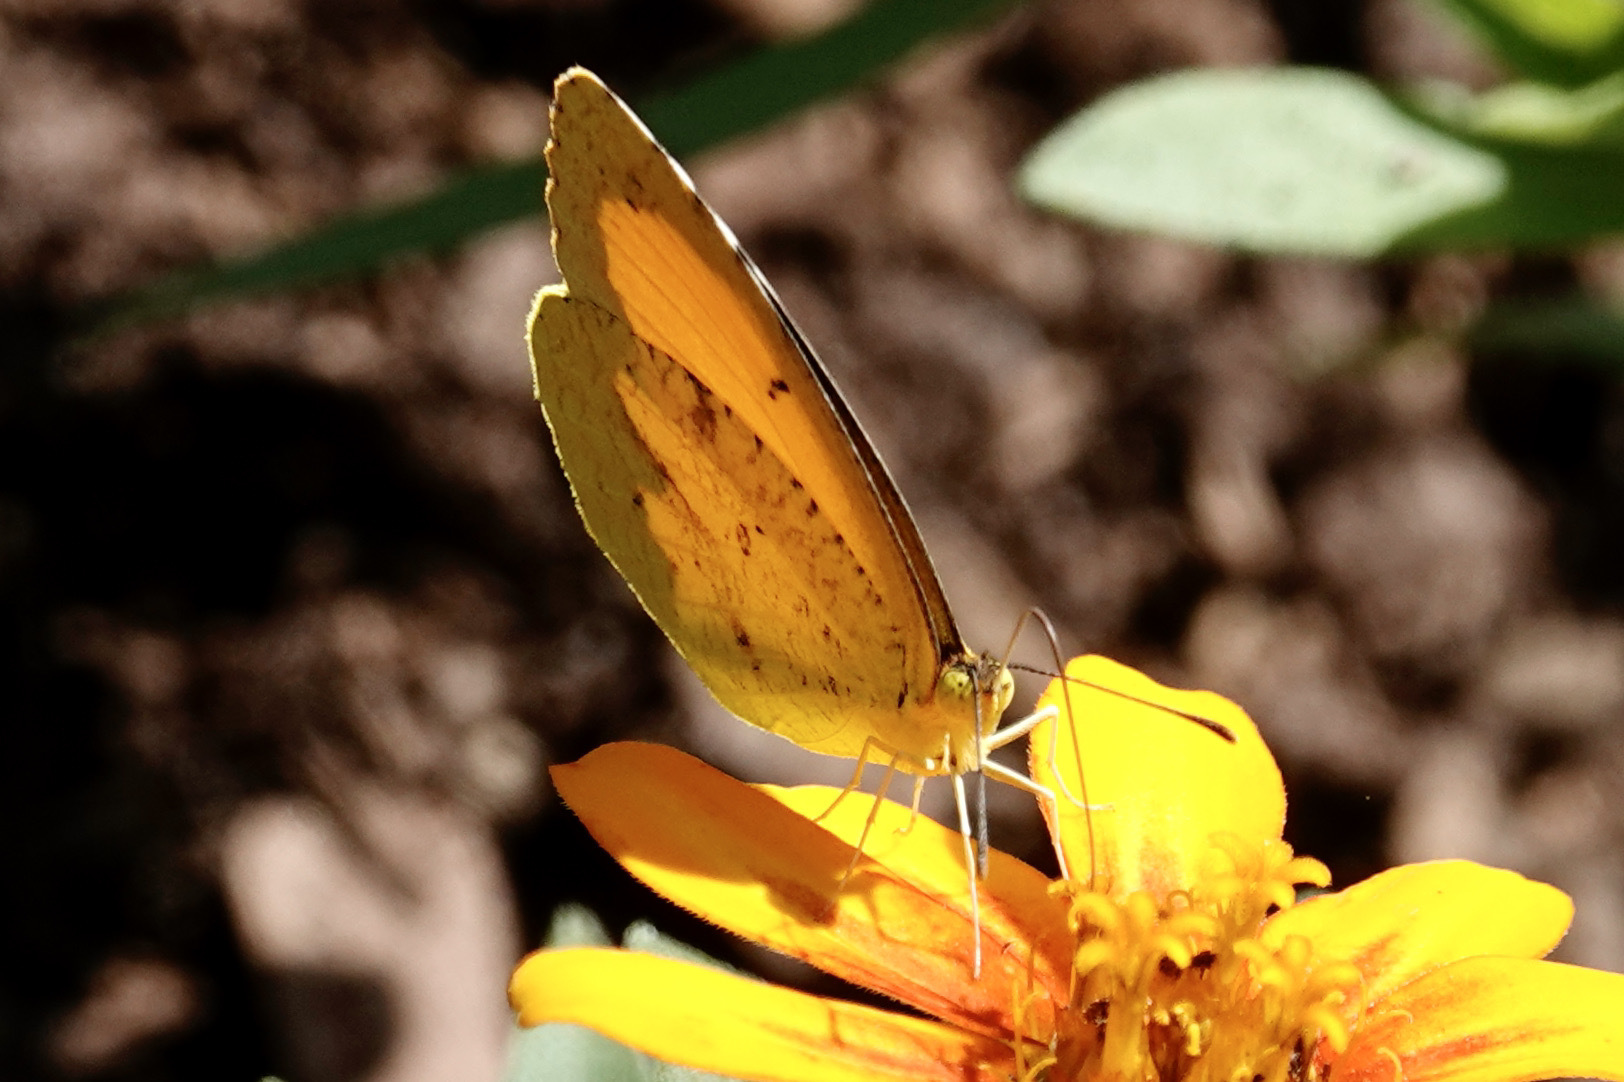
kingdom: Animalia
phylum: Arthropoda
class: Insecta
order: Lepidoptera
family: Pieridae
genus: Abaeis
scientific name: Abaeis nicippe
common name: Sleepy orange
